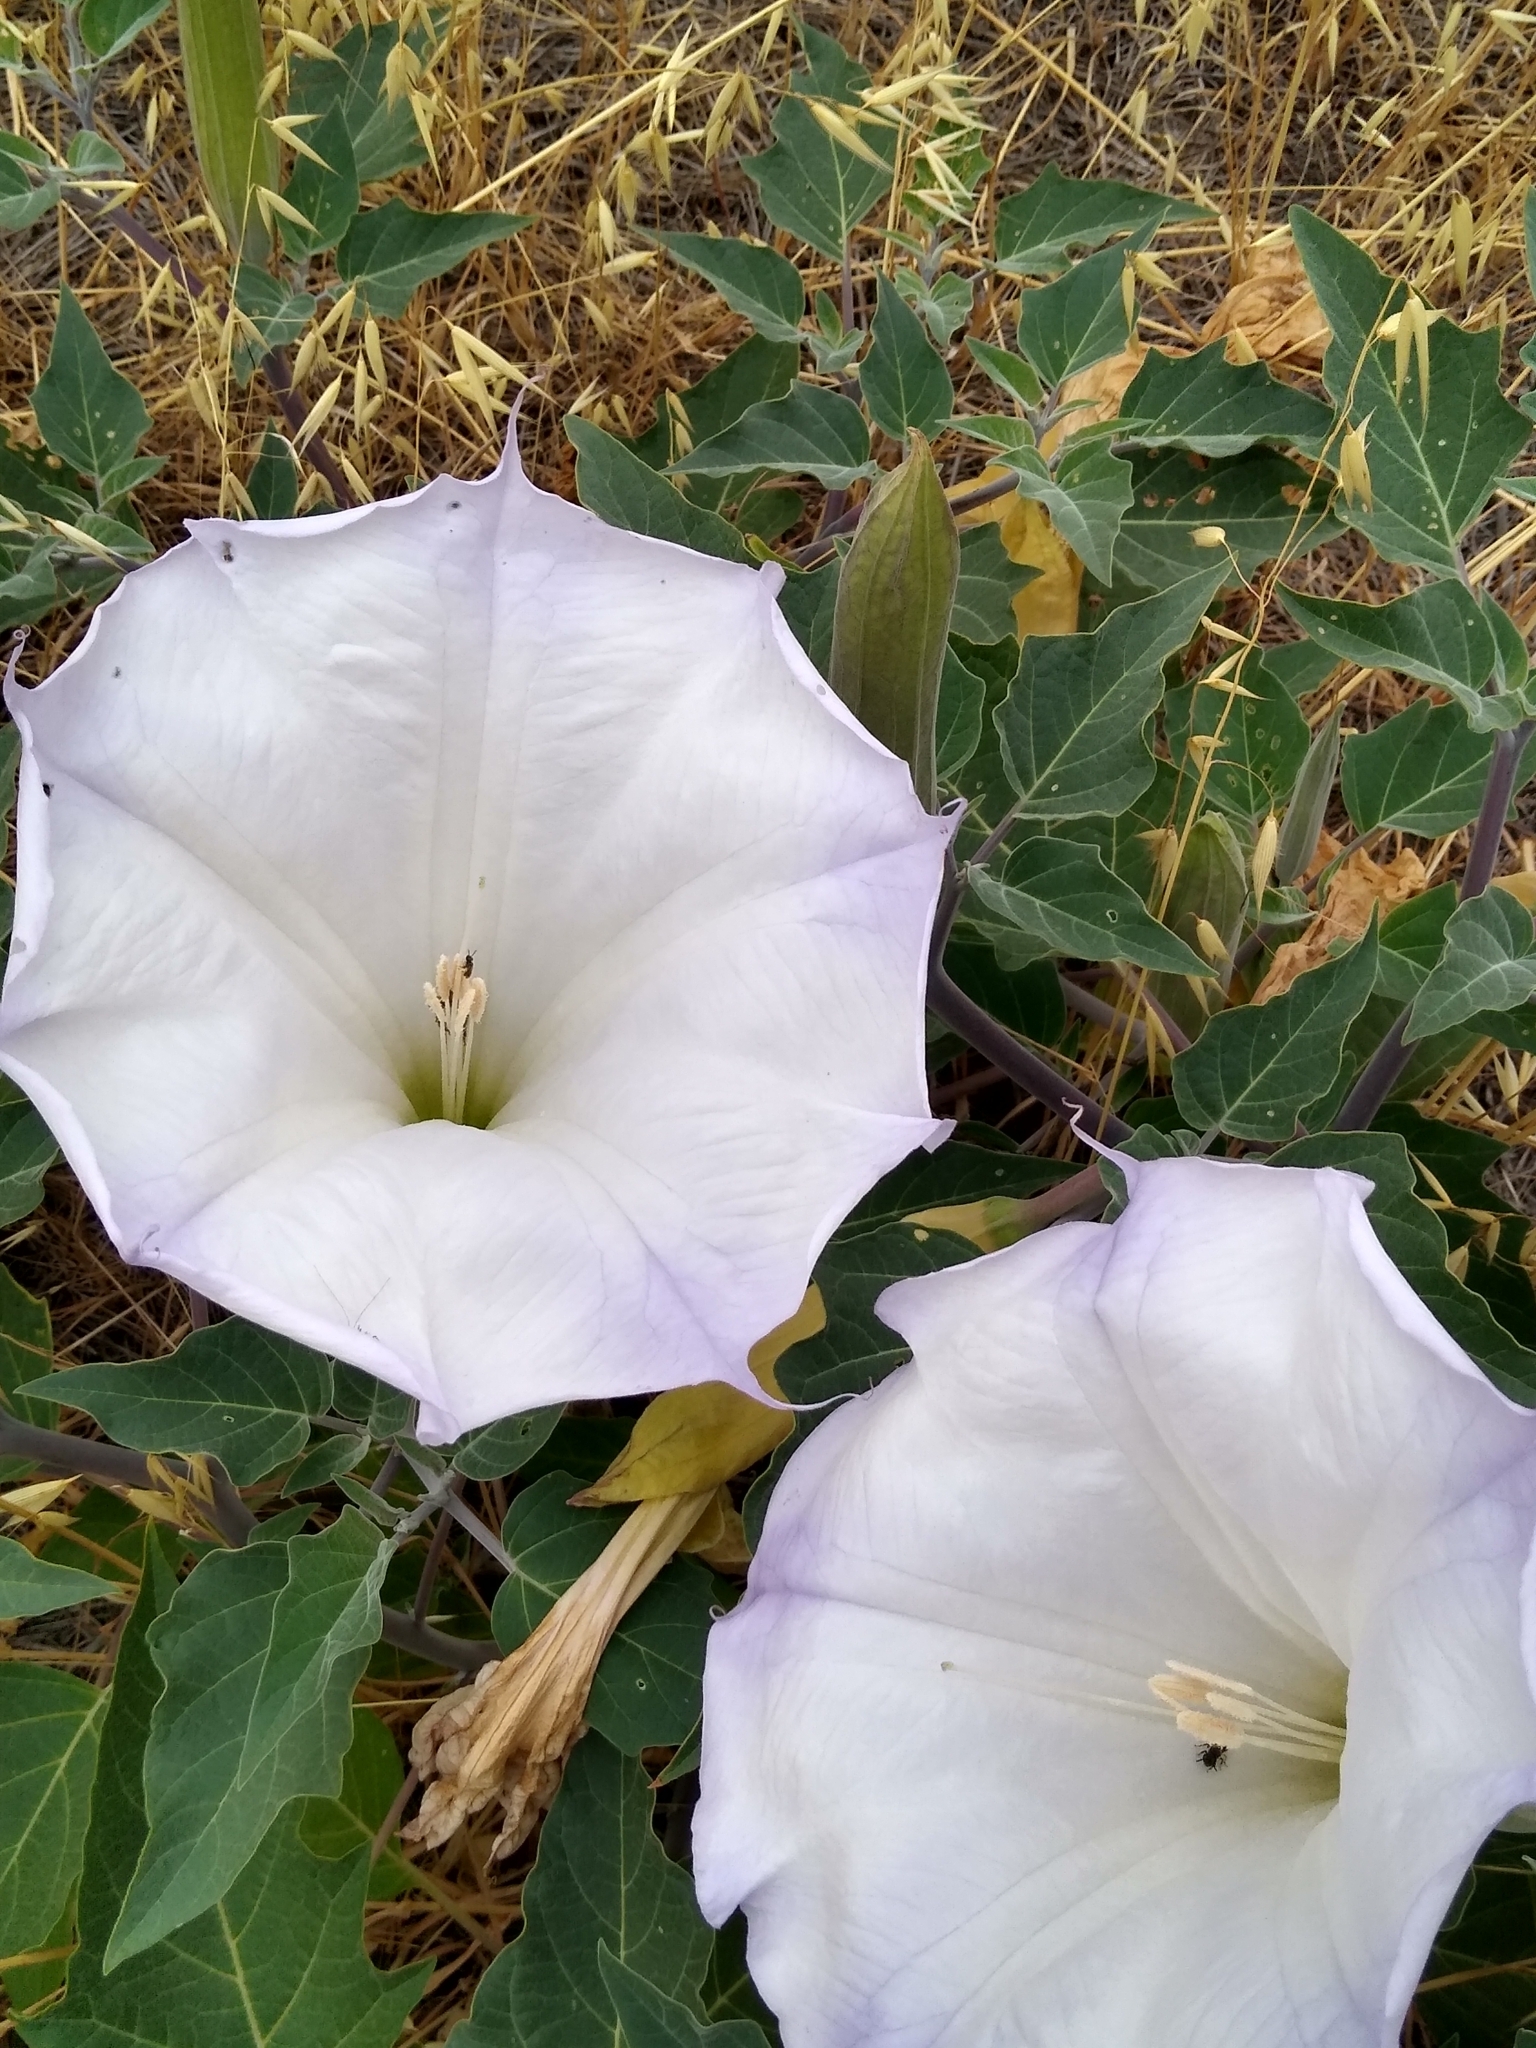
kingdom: Plantae
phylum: Tracheophyta
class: Magnoliopsida
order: Solanales
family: Solanaceae
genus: Datura
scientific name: Datura wrightii
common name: Sacred thorn-apple
